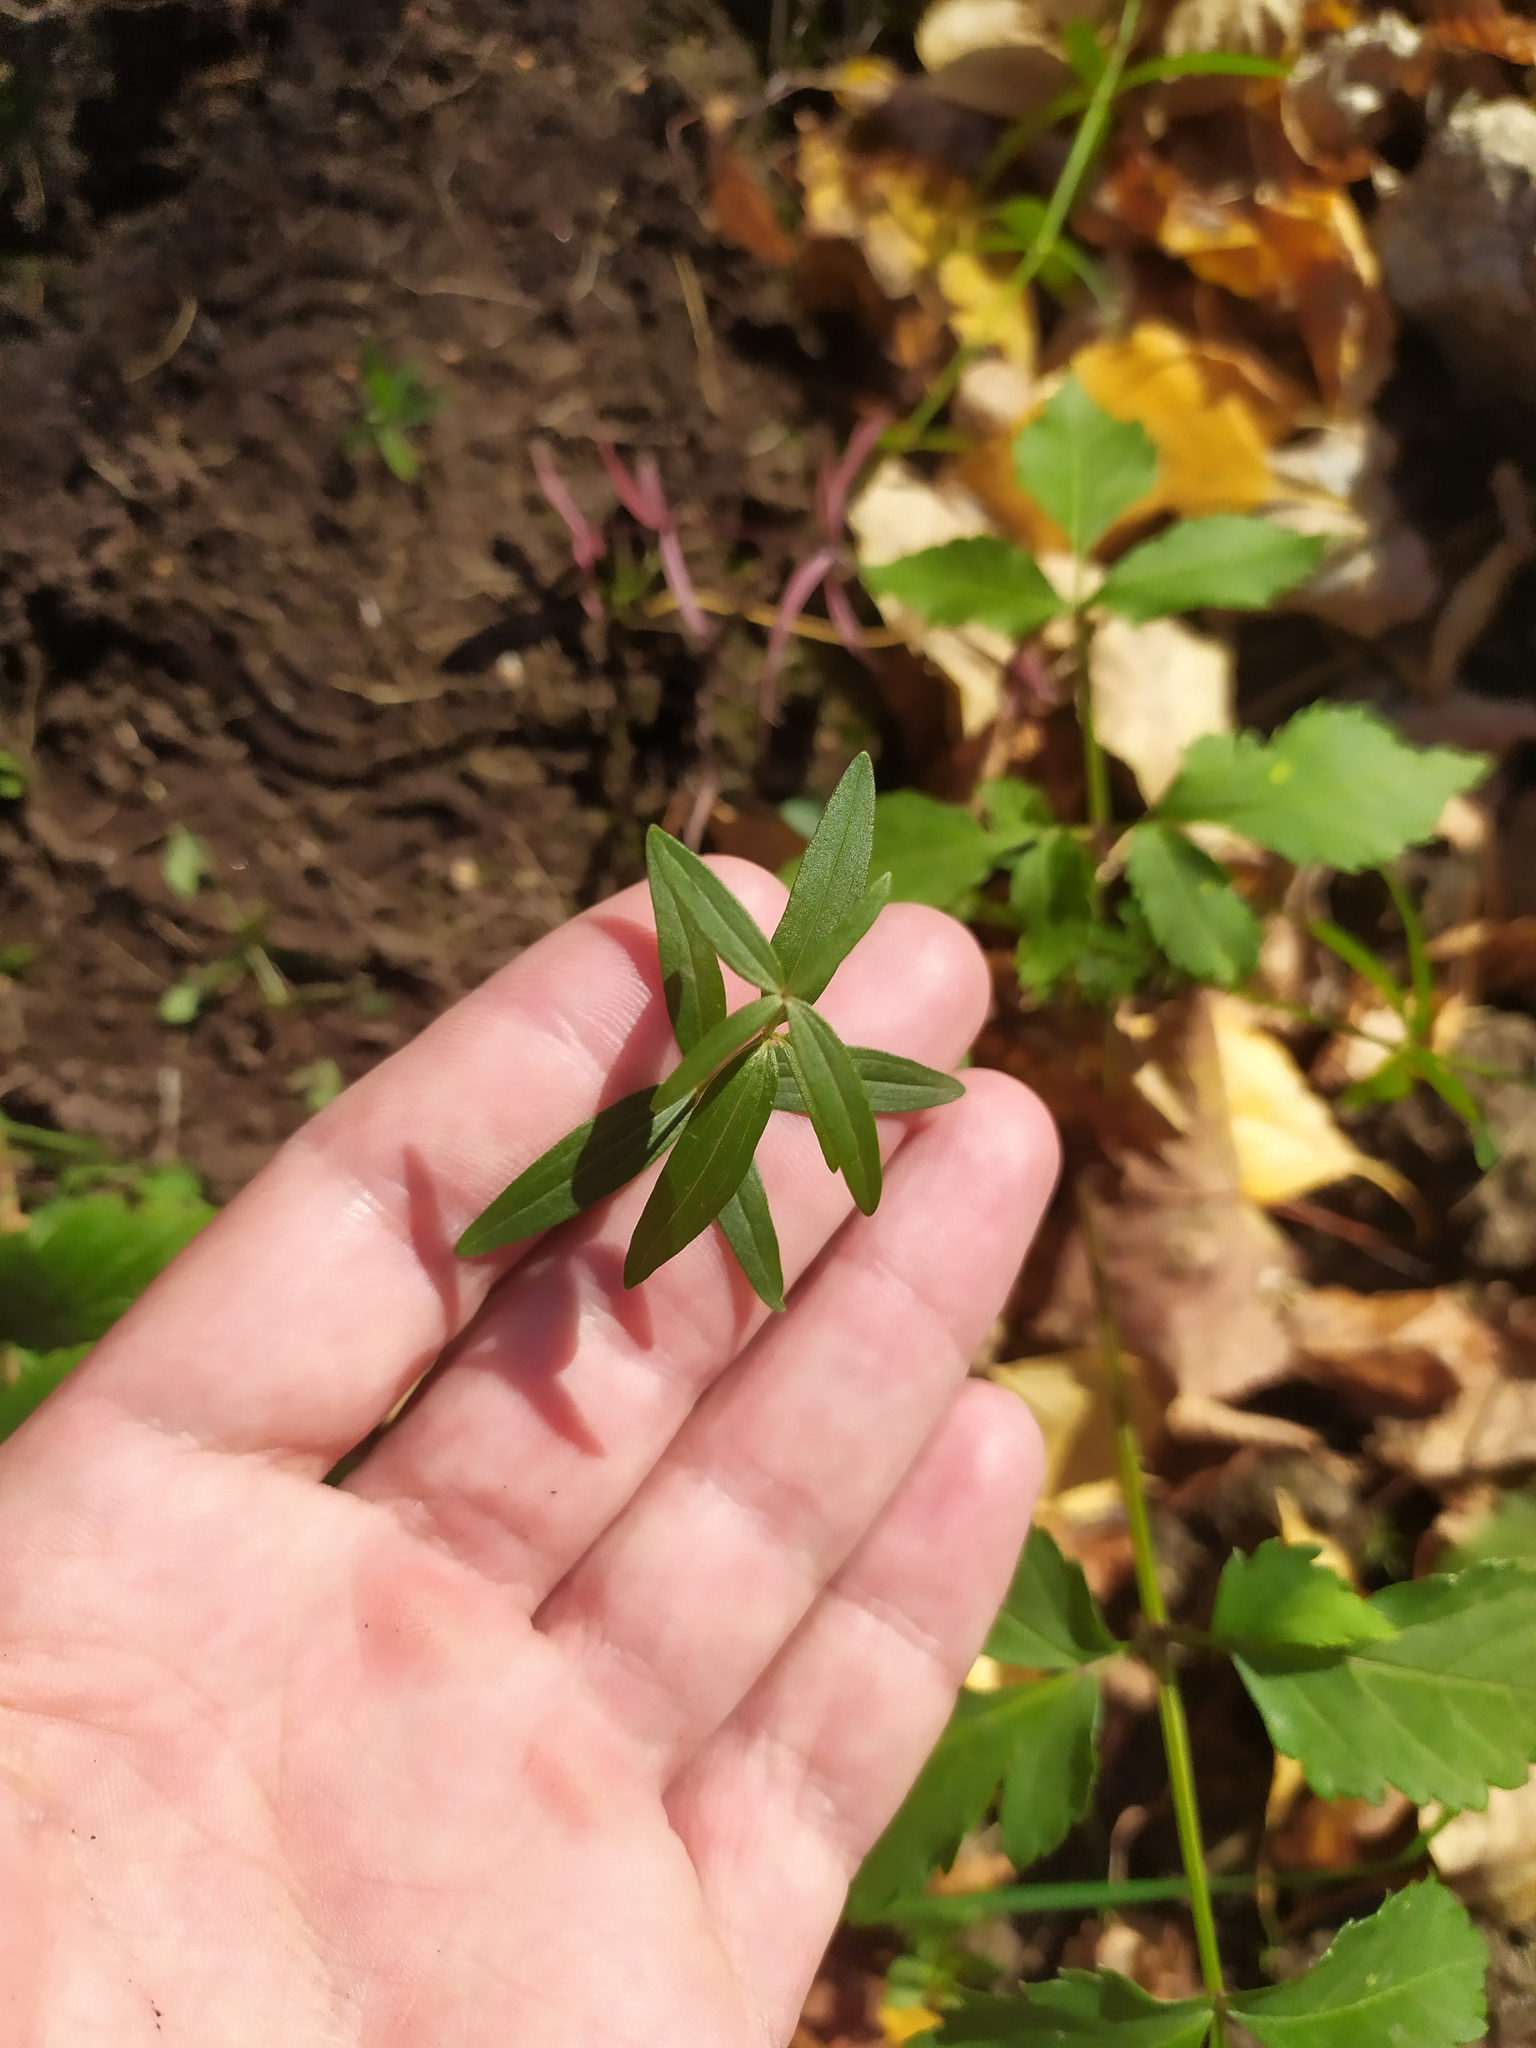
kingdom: Plantae
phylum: Tracheophyta
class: Magnoliopsida
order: Gentianales
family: Rubiaceae
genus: Galium
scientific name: Galium boreale
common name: Northern bedstraw
